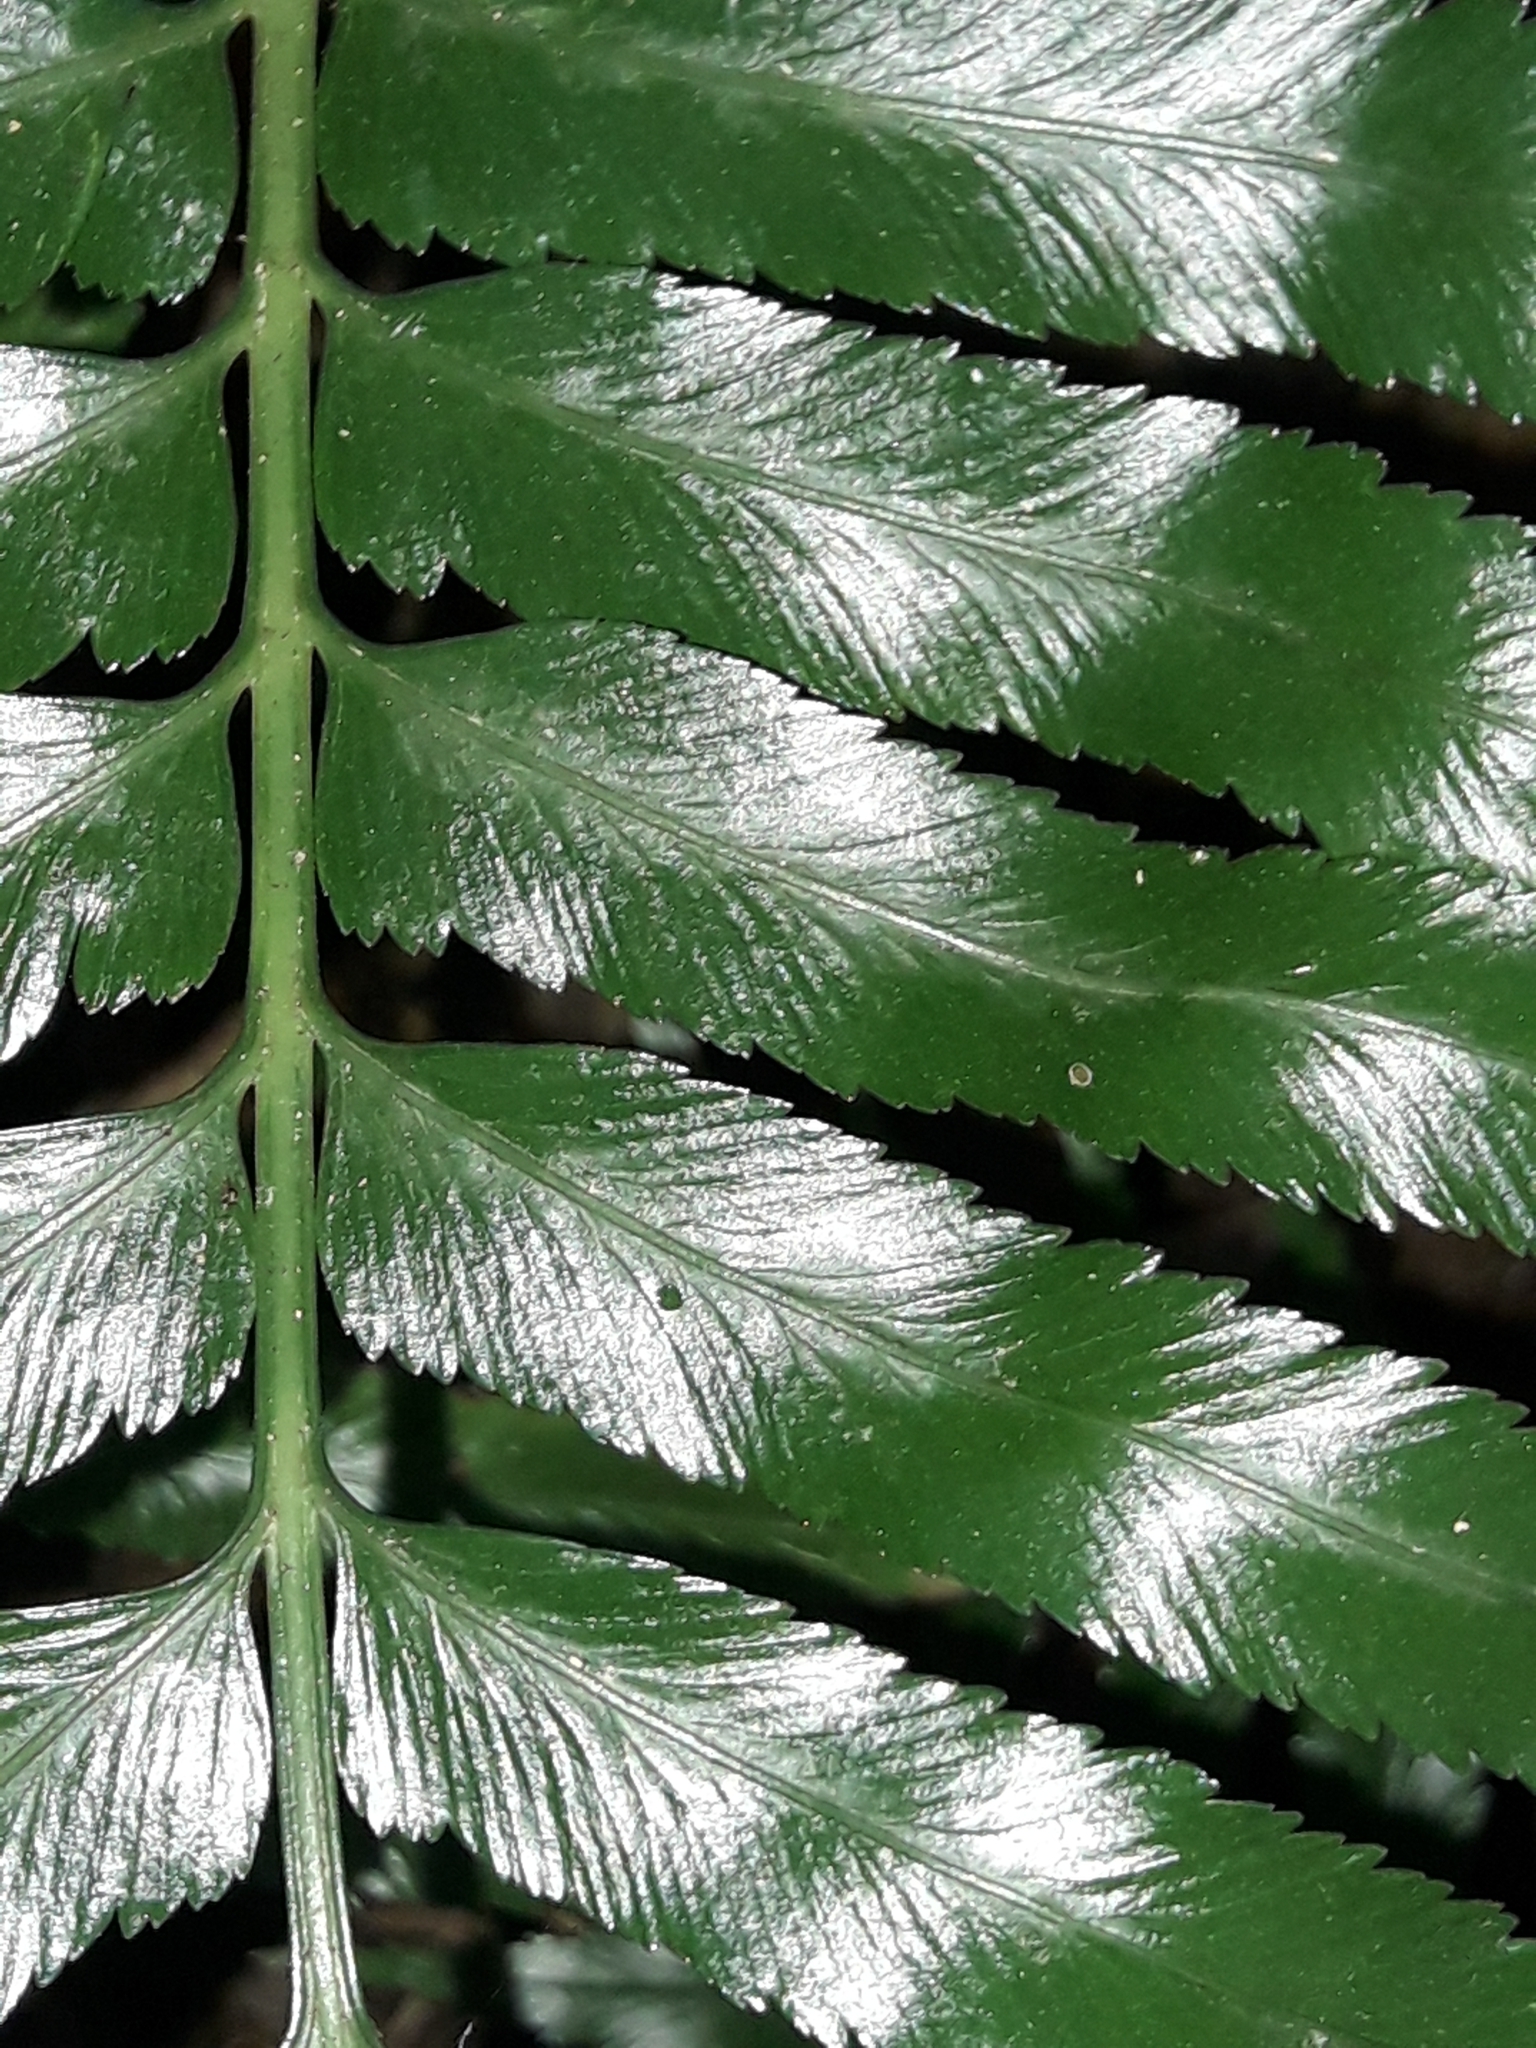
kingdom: Plantae
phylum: Tracheophyta
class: Polypodiopsida
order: Polypodiales
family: Aspleniaceae
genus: Asplenium
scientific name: Asplenium milnei
